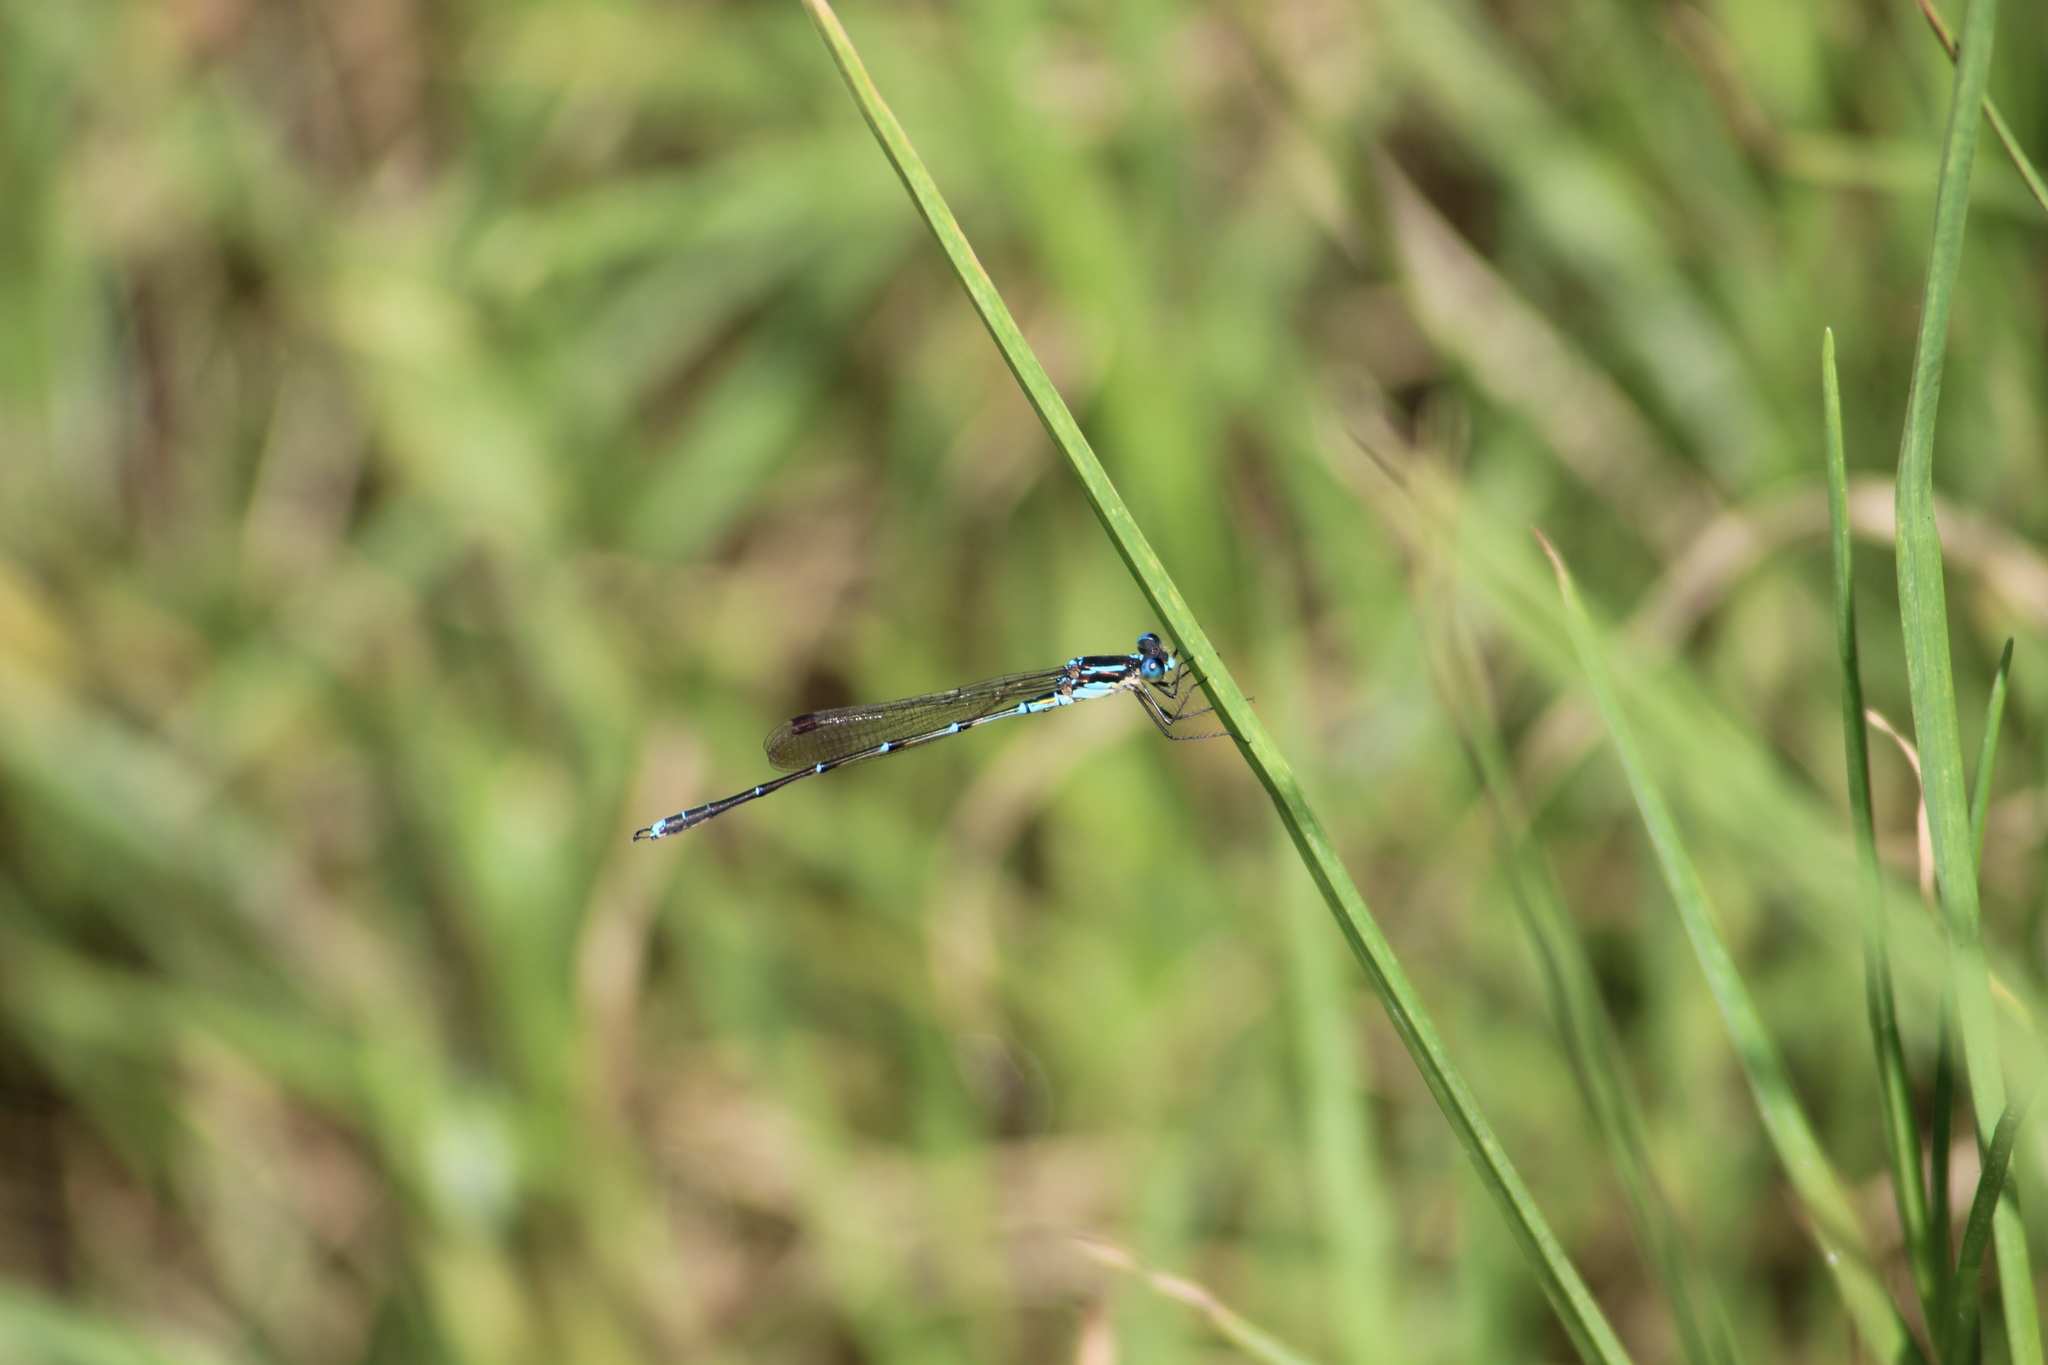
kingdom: Animalia
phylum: Arthropoda
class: Insecta
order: Odonata
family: Lestidae
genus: Austrolestes
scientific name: Austrolestes colensonis
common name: Blue damselfly
